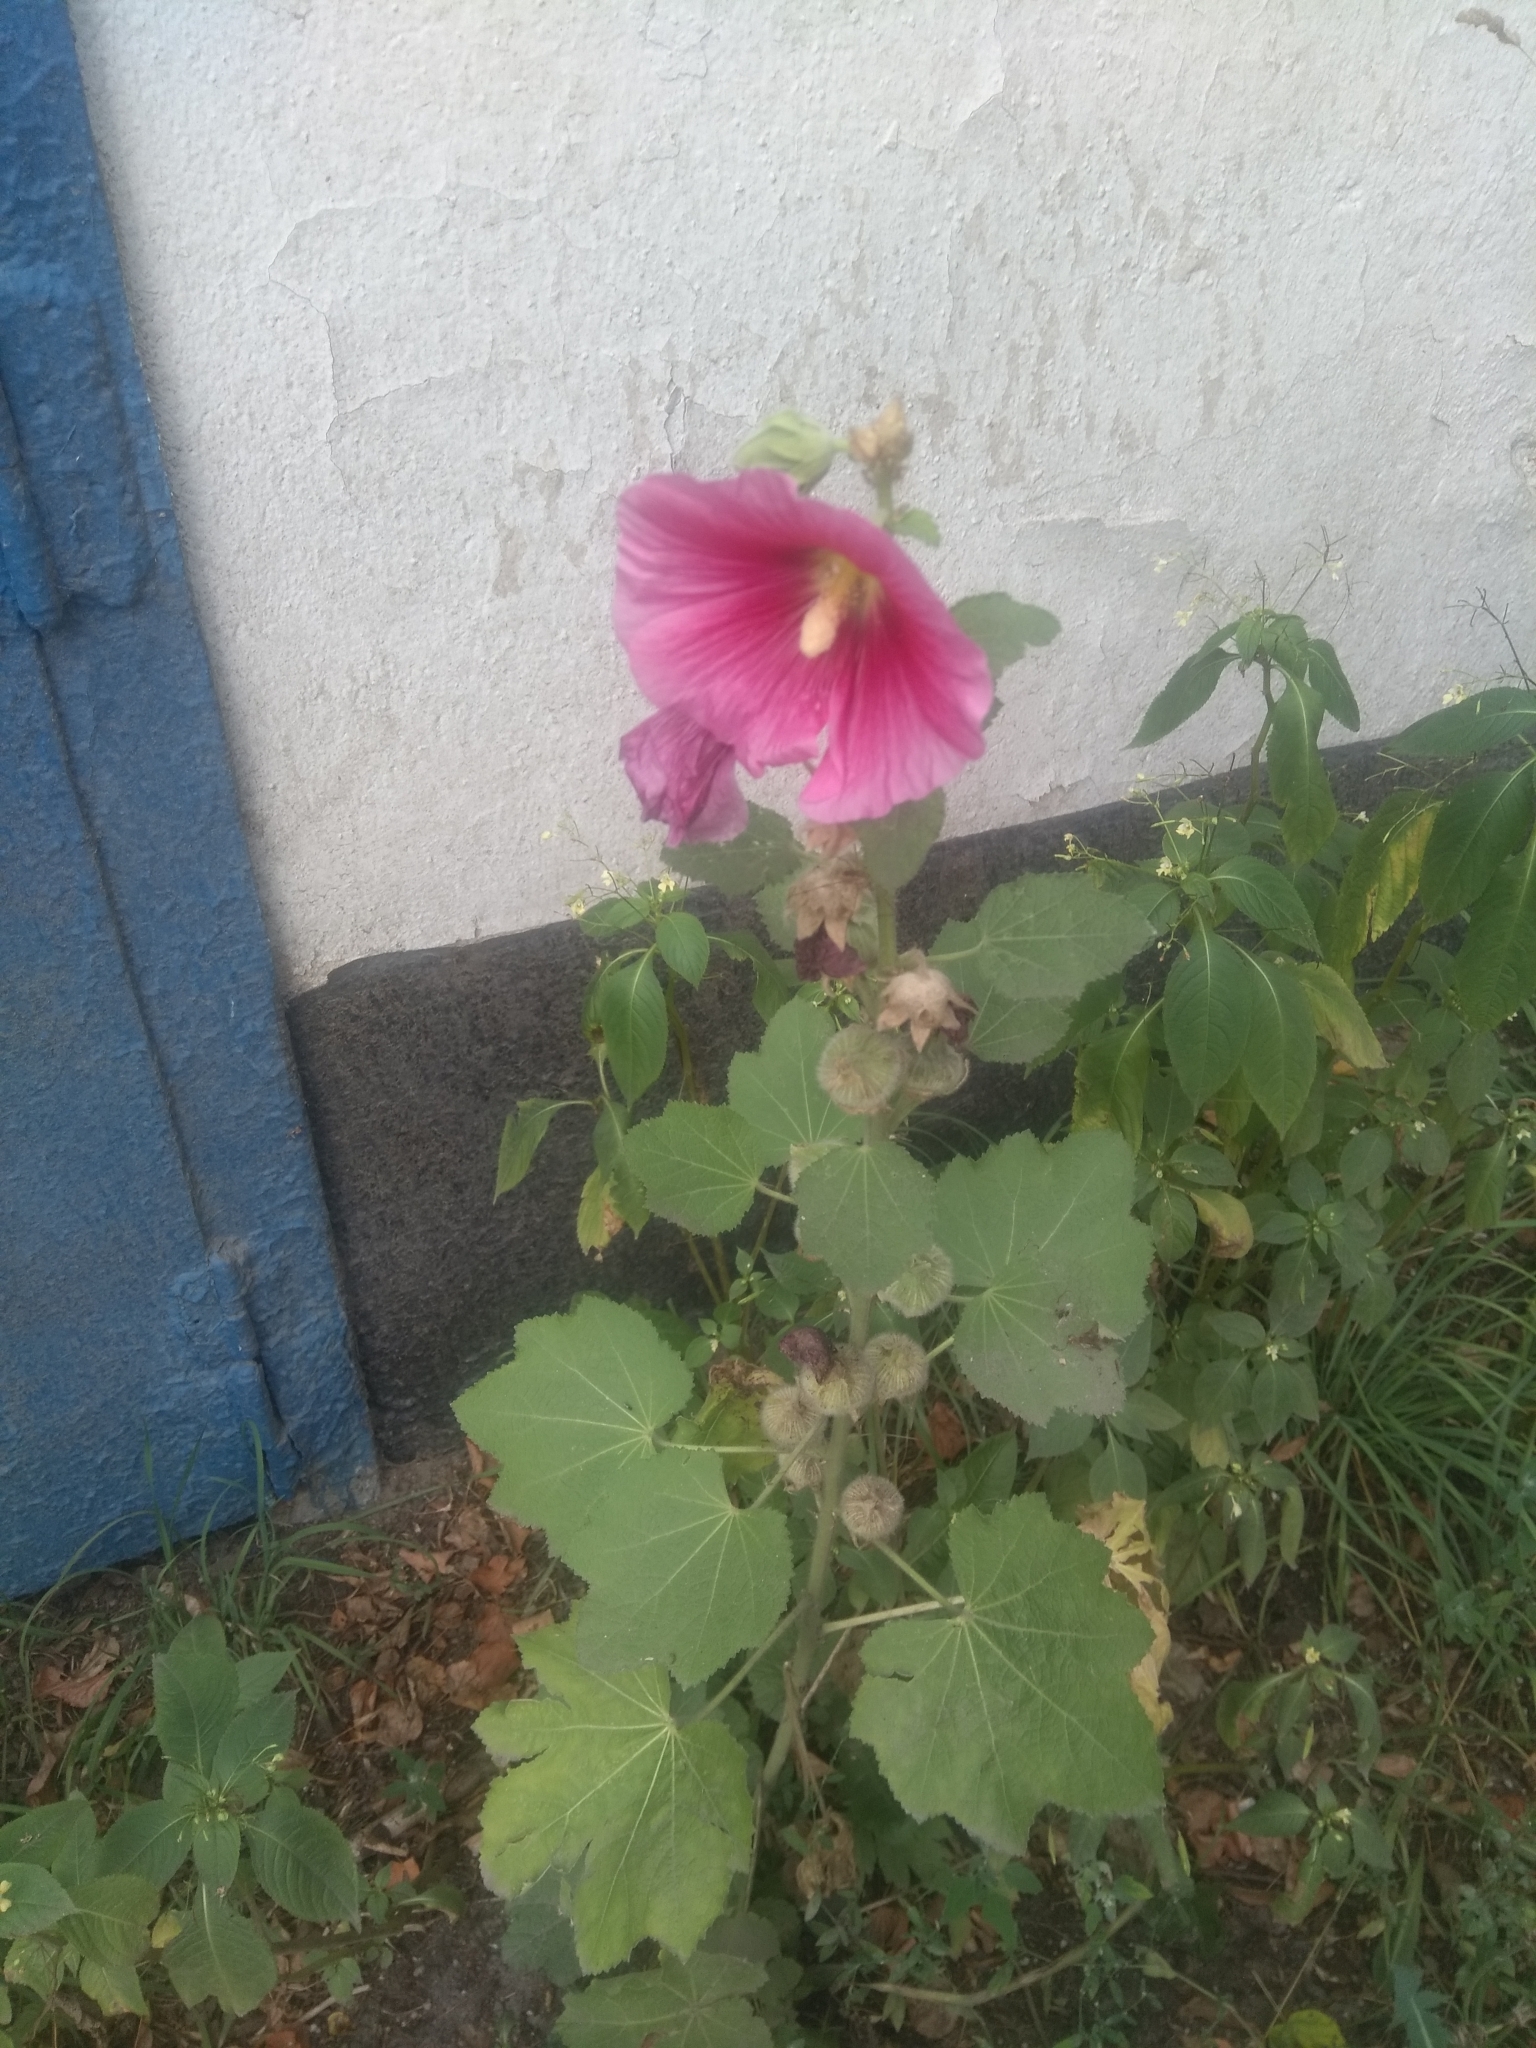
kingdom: Plantae
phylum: Tracheophyta
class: Magnoliopsida
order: Malvales
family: Malvaceae
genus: Alcea
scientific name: Alcea rosea
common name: Hollyhock
